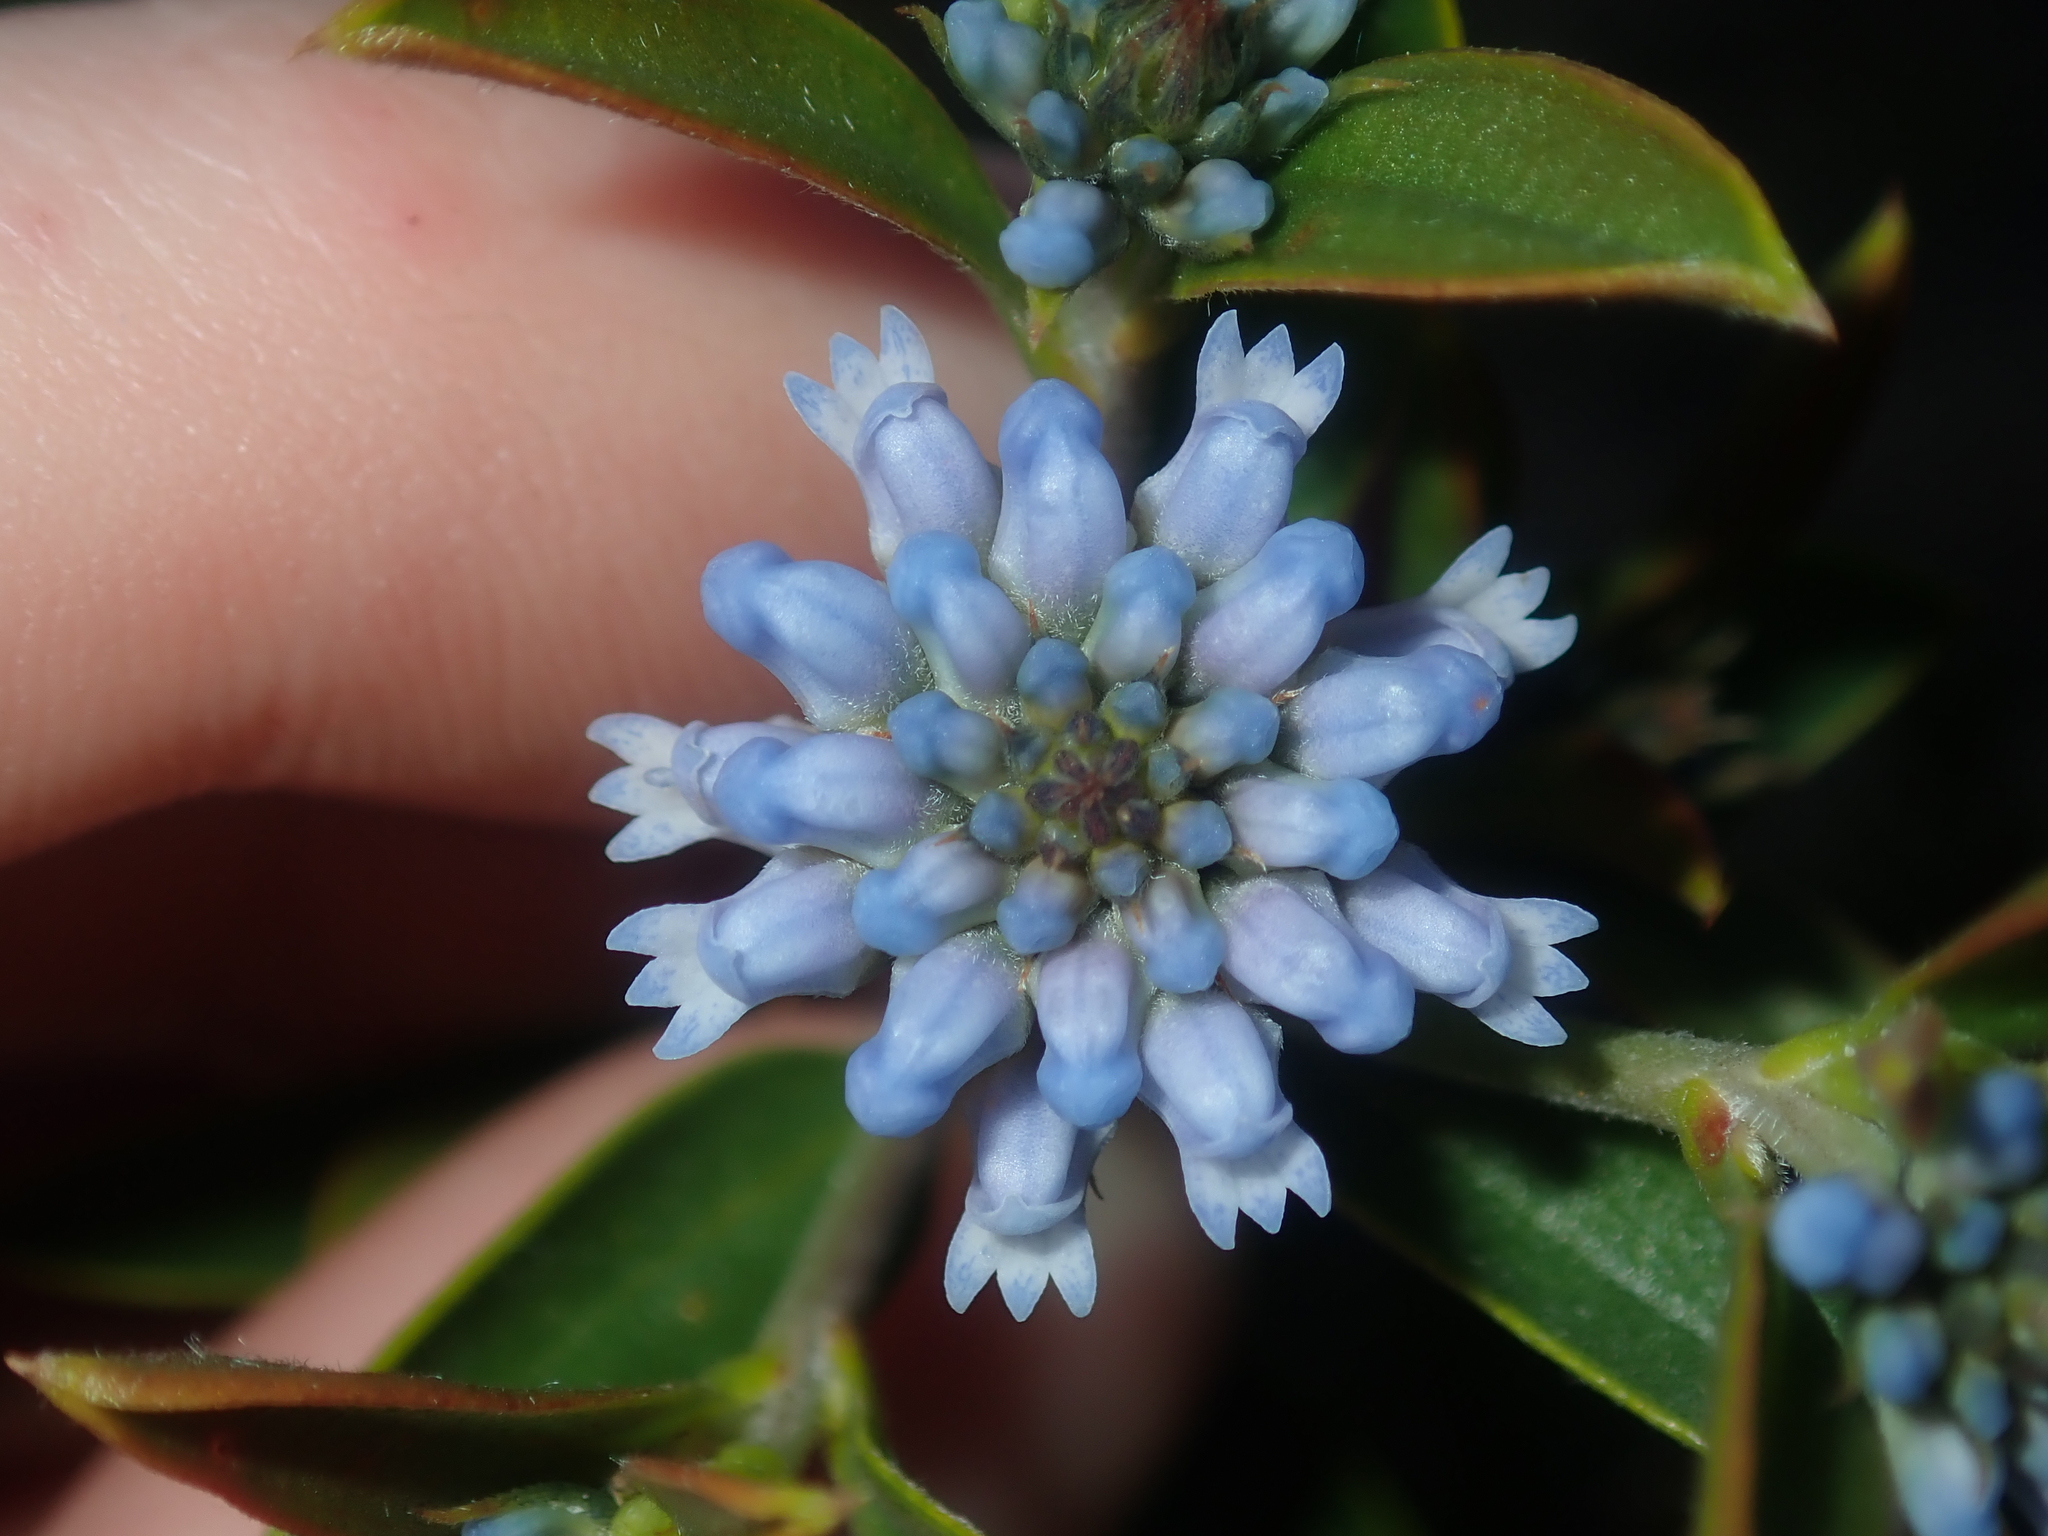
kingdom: Plantae
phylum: Tracheophyta
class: Magnoliopsida
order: Proteales
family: Proteaceae
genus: Conospermum
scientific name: Conospermum nervosum
